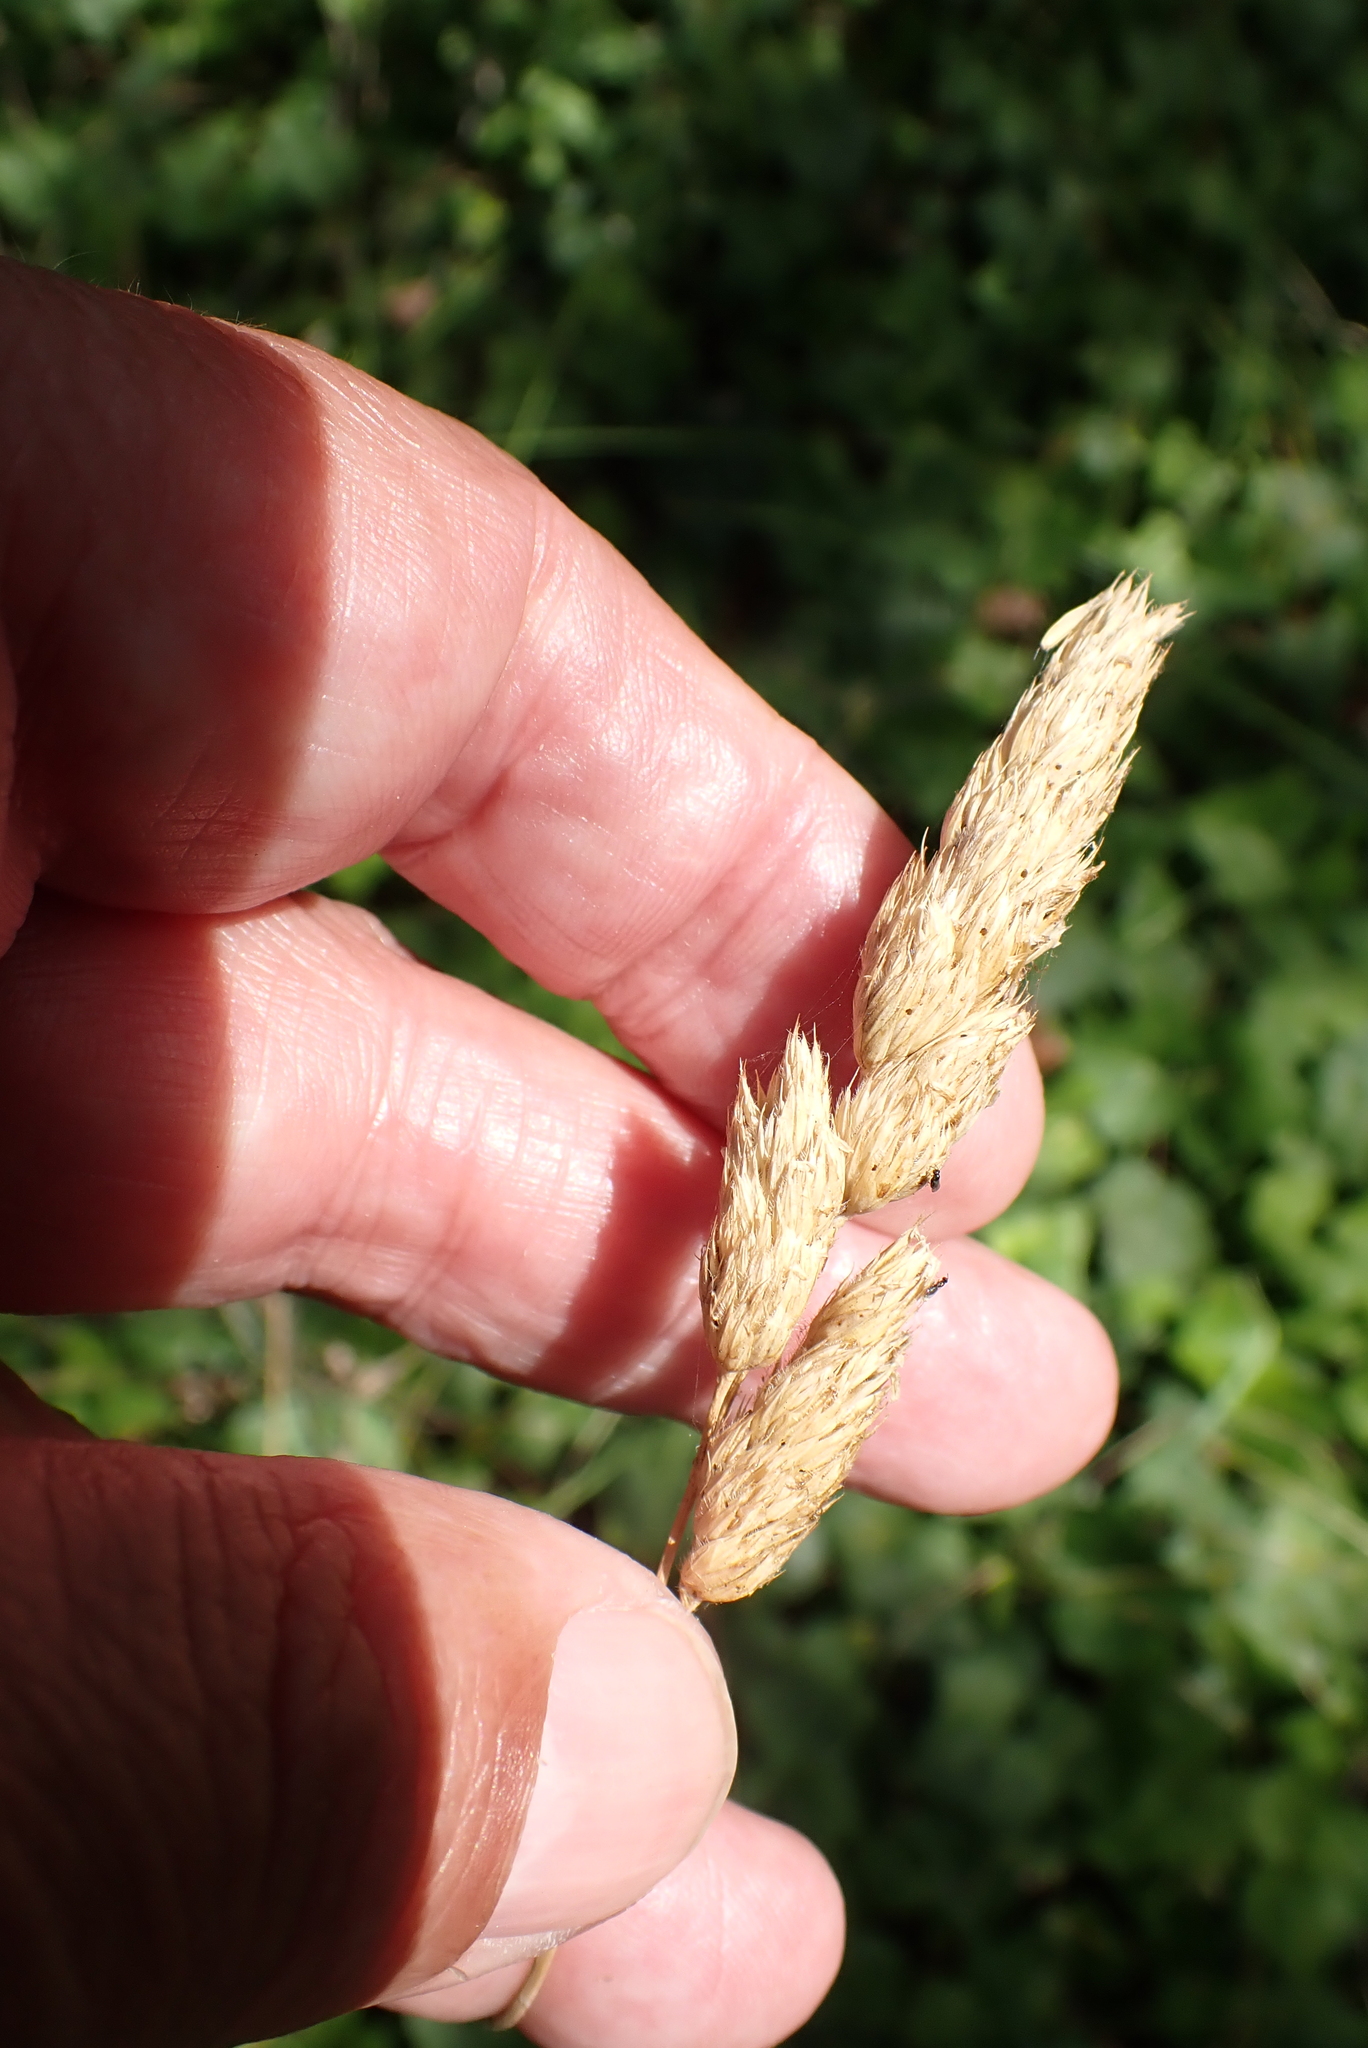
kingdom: Plantae
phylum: Tracheophyta
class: Liliopsida
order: Poales
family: Poaceae
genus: Dactylis
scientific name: Dactylis glomerata
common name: Orchardgrass
